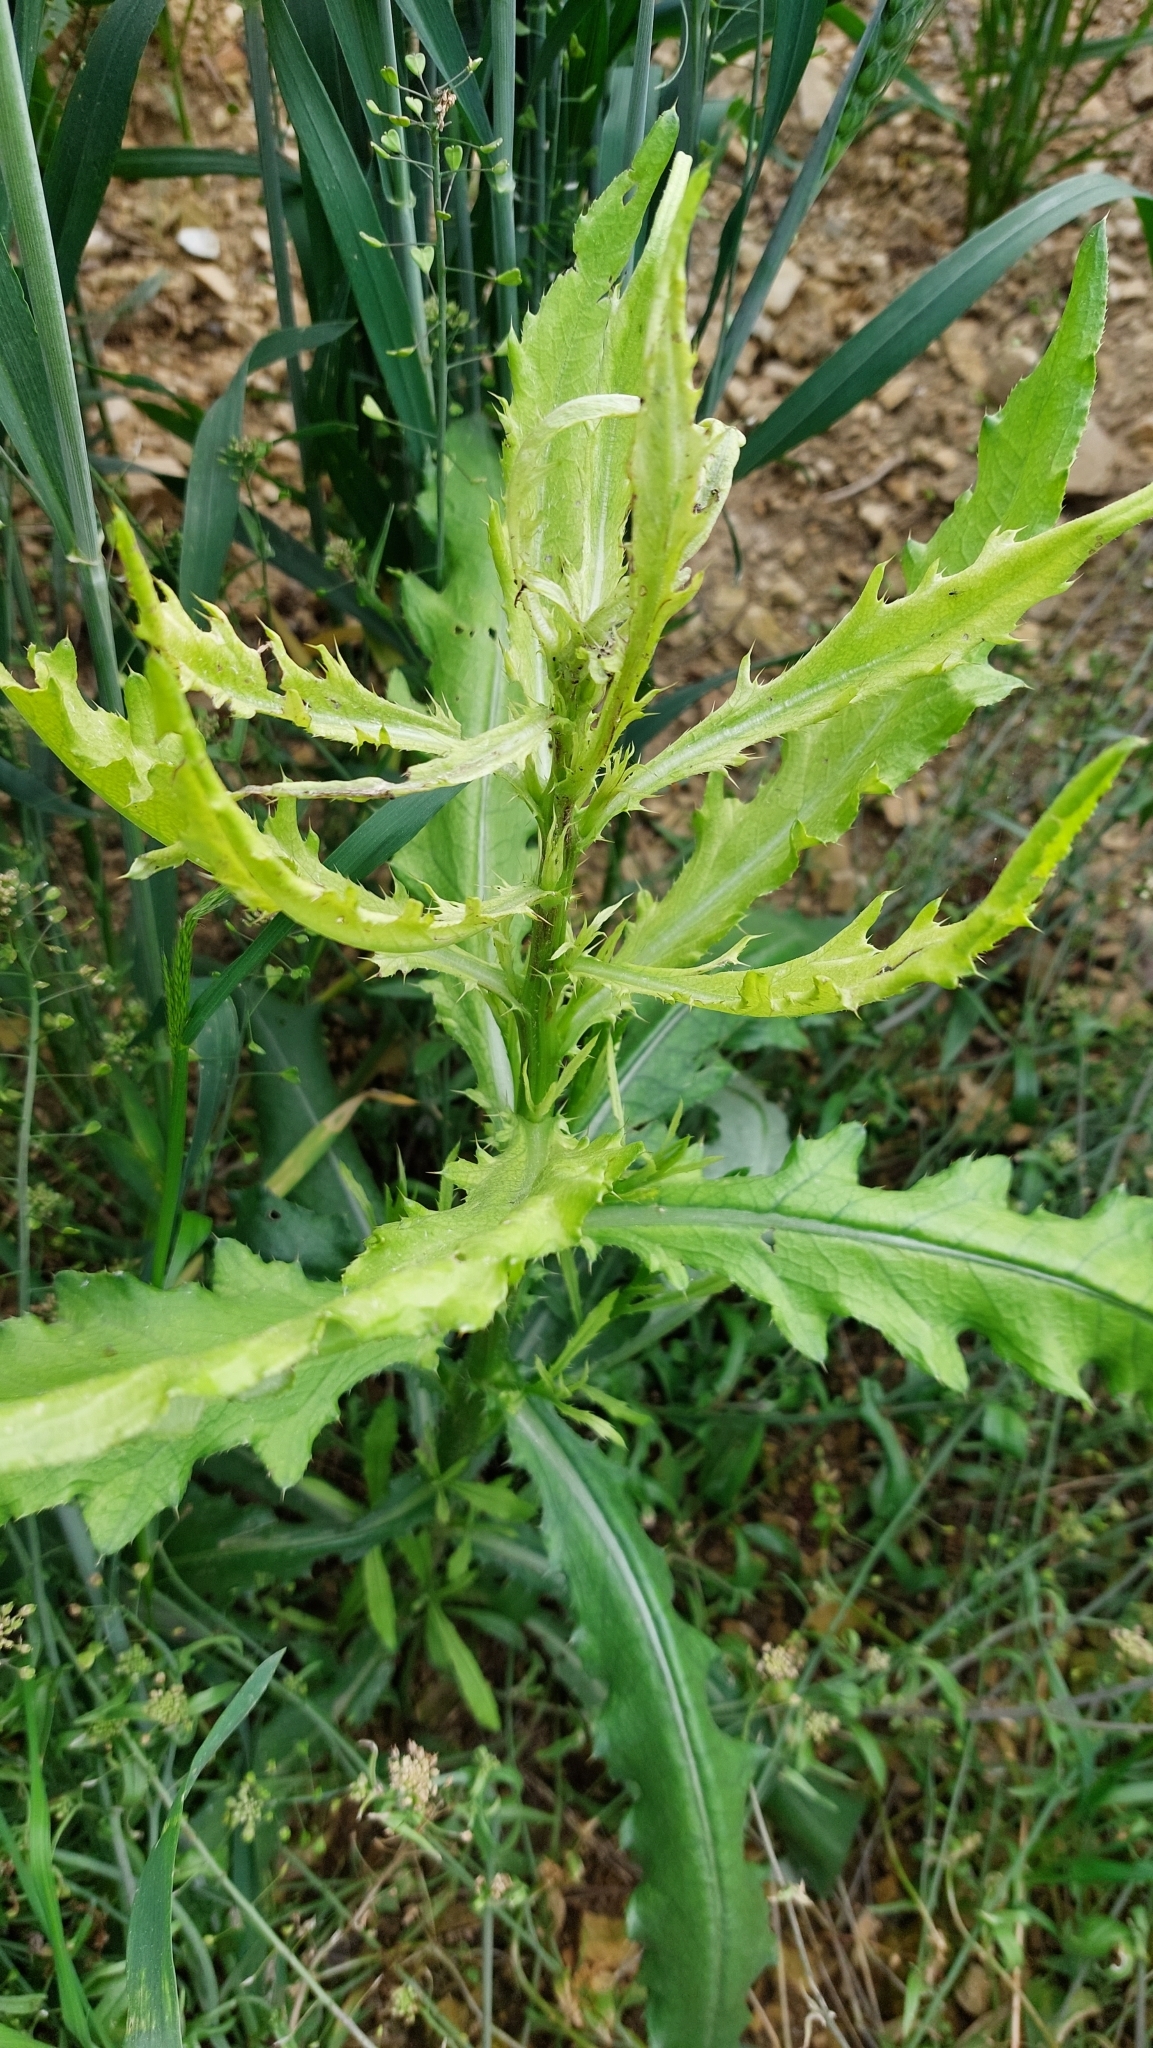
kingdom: Plantae
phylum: Tracheophyta
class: Magnoliopsida
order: Asterales
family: Asteraceae
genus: Cirsium
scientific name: Cirsium arvense
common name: Creeping thistle
